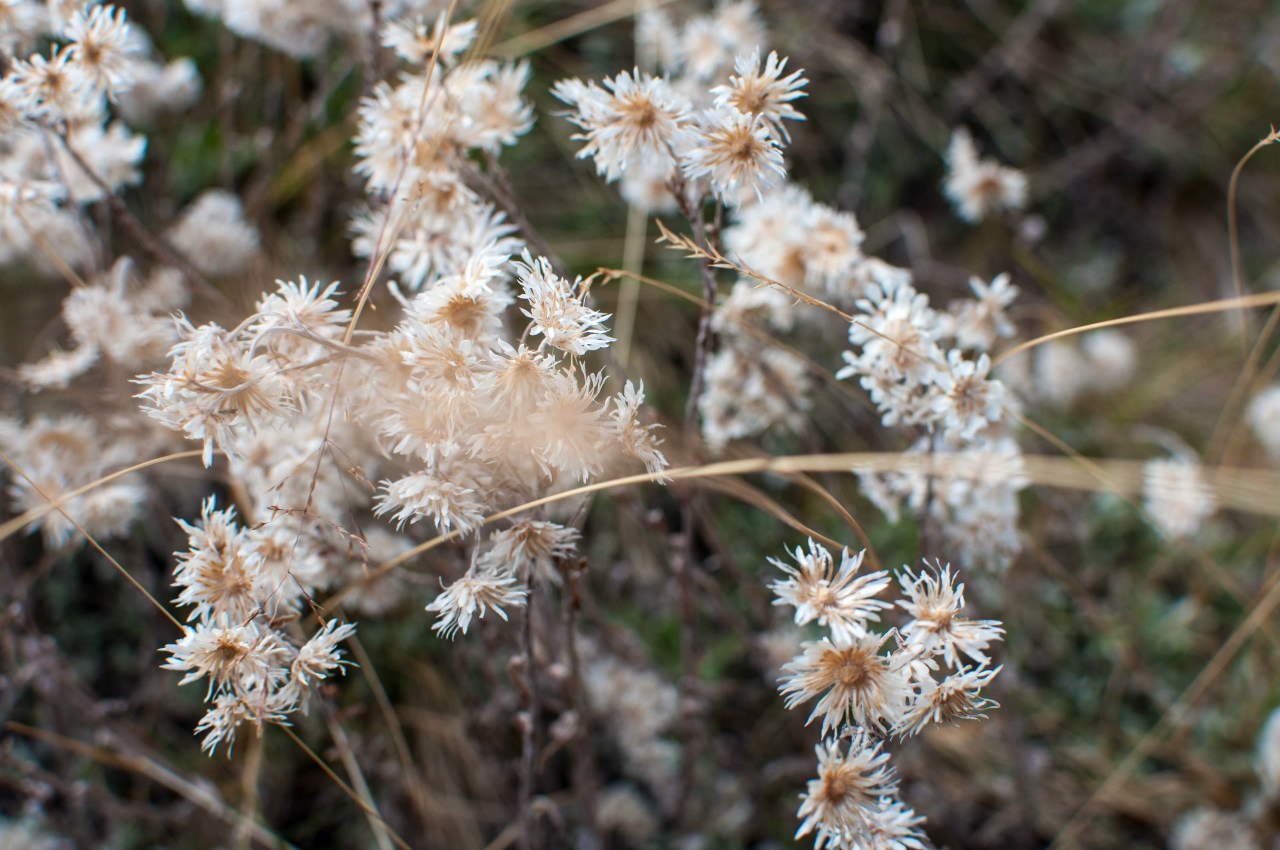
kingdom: Plantae
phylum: Tracheophyta
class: Magnoliopsida
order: Asterales
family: Asteraceae
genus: Antennaria
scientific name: Antennaria dioica
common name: Mountain everlasting
